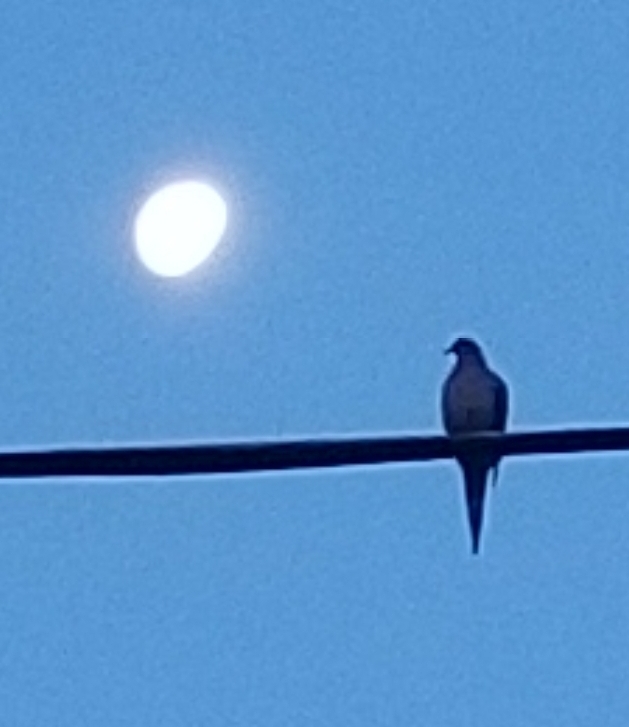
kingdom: Animalia
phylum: Chordata
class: Aves
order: Columbiformes
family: Columbidae
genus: Zenaida
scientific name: Zenaida macroura
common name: Mourning dove
